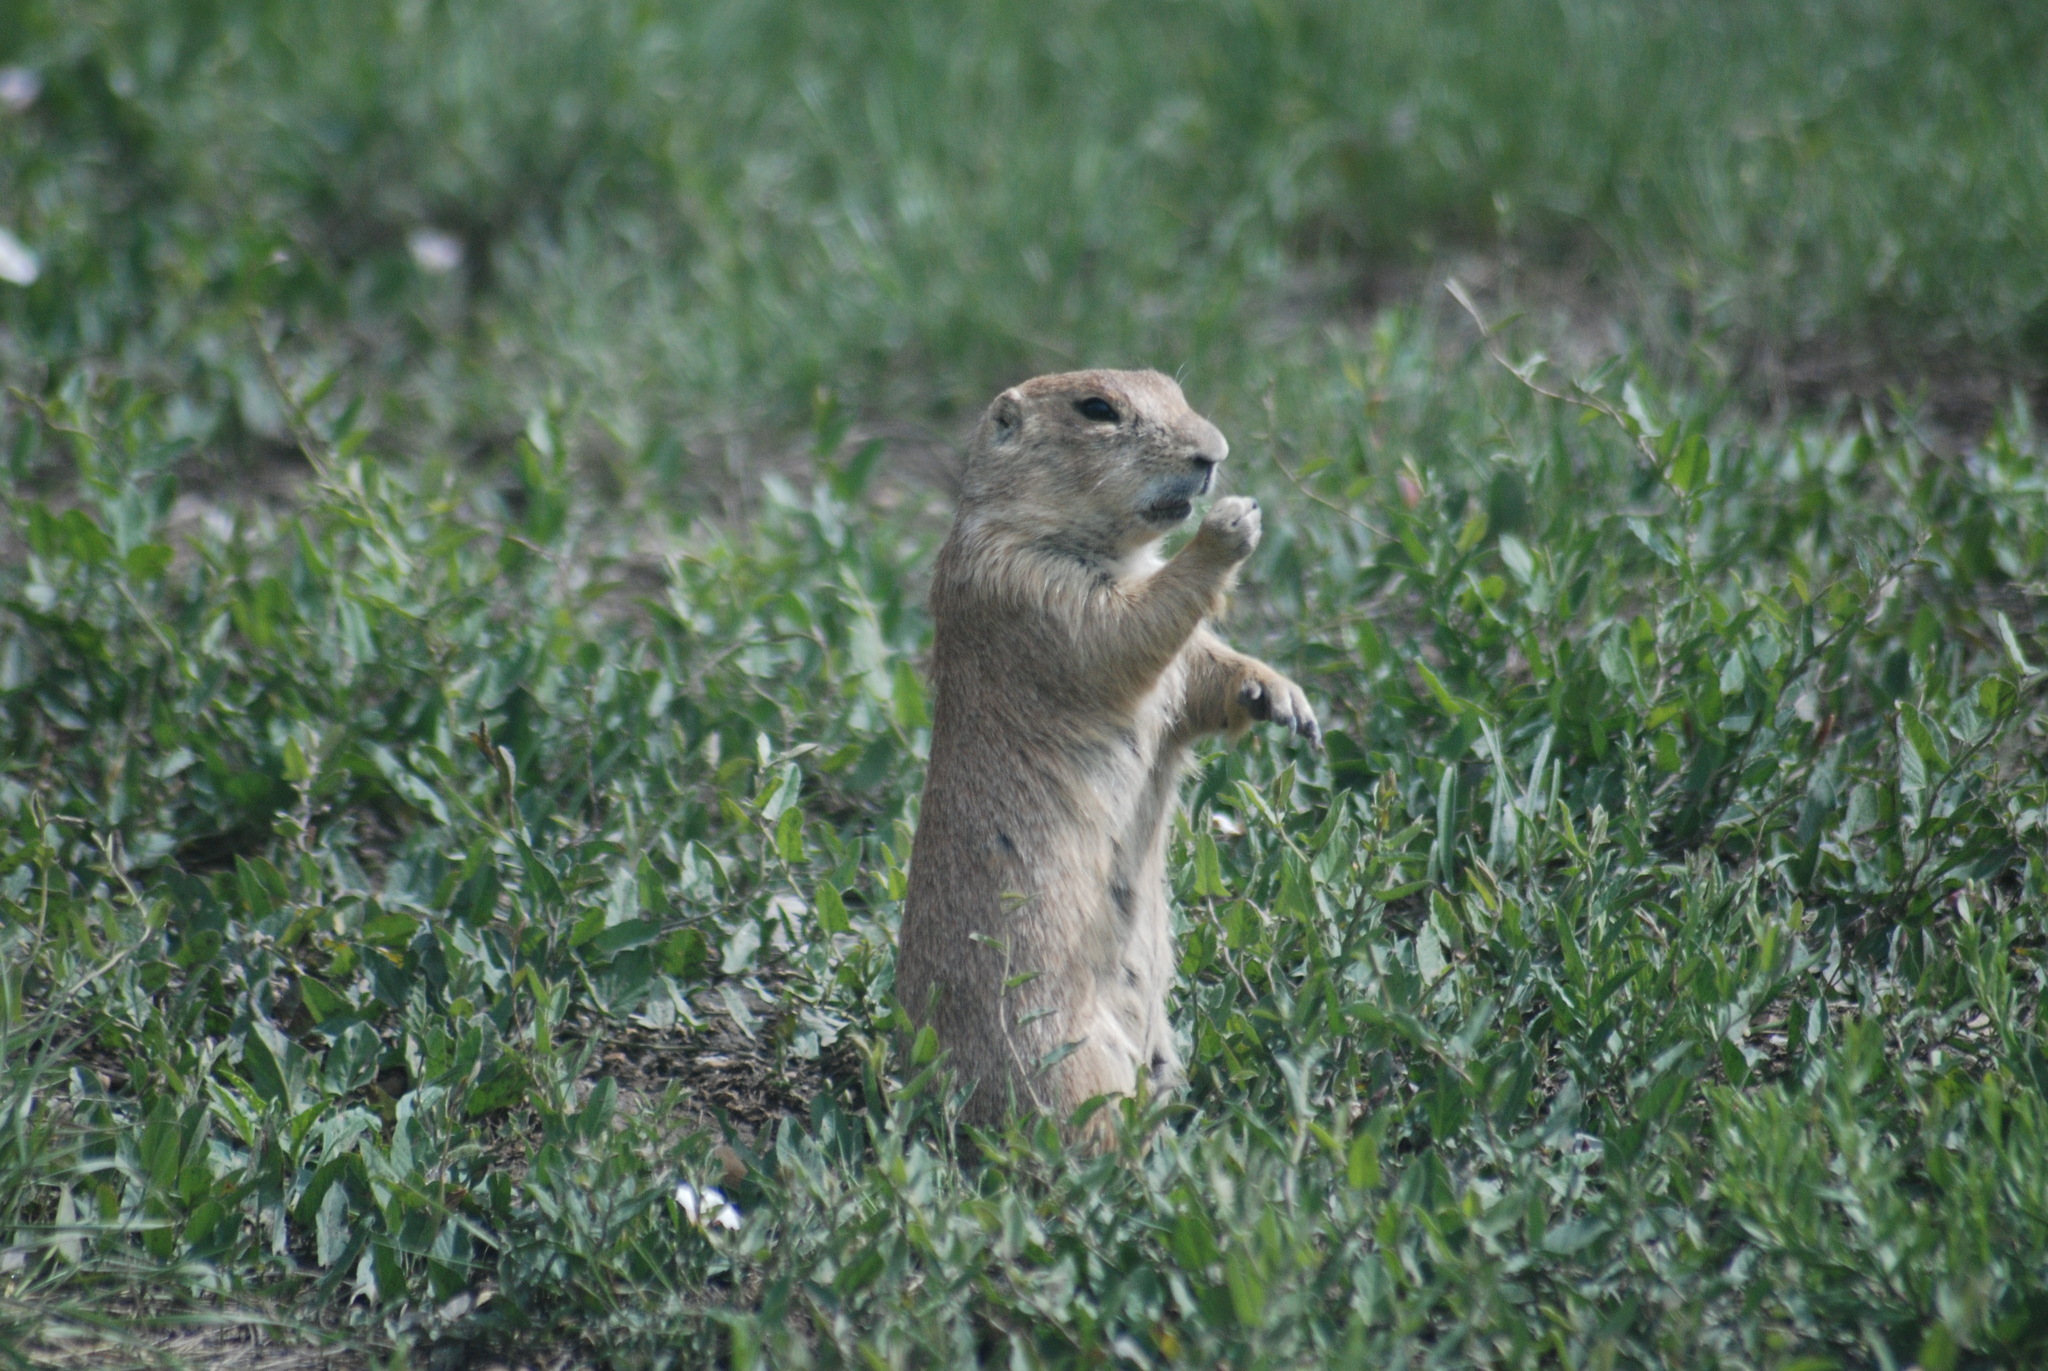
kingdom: Animalia
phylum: Chordata
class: Mammalia
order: Rodentia
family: Sciuridae
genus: Cynomys
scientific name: Cynomys ludovicianus
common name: Black-tailed prairie dog
